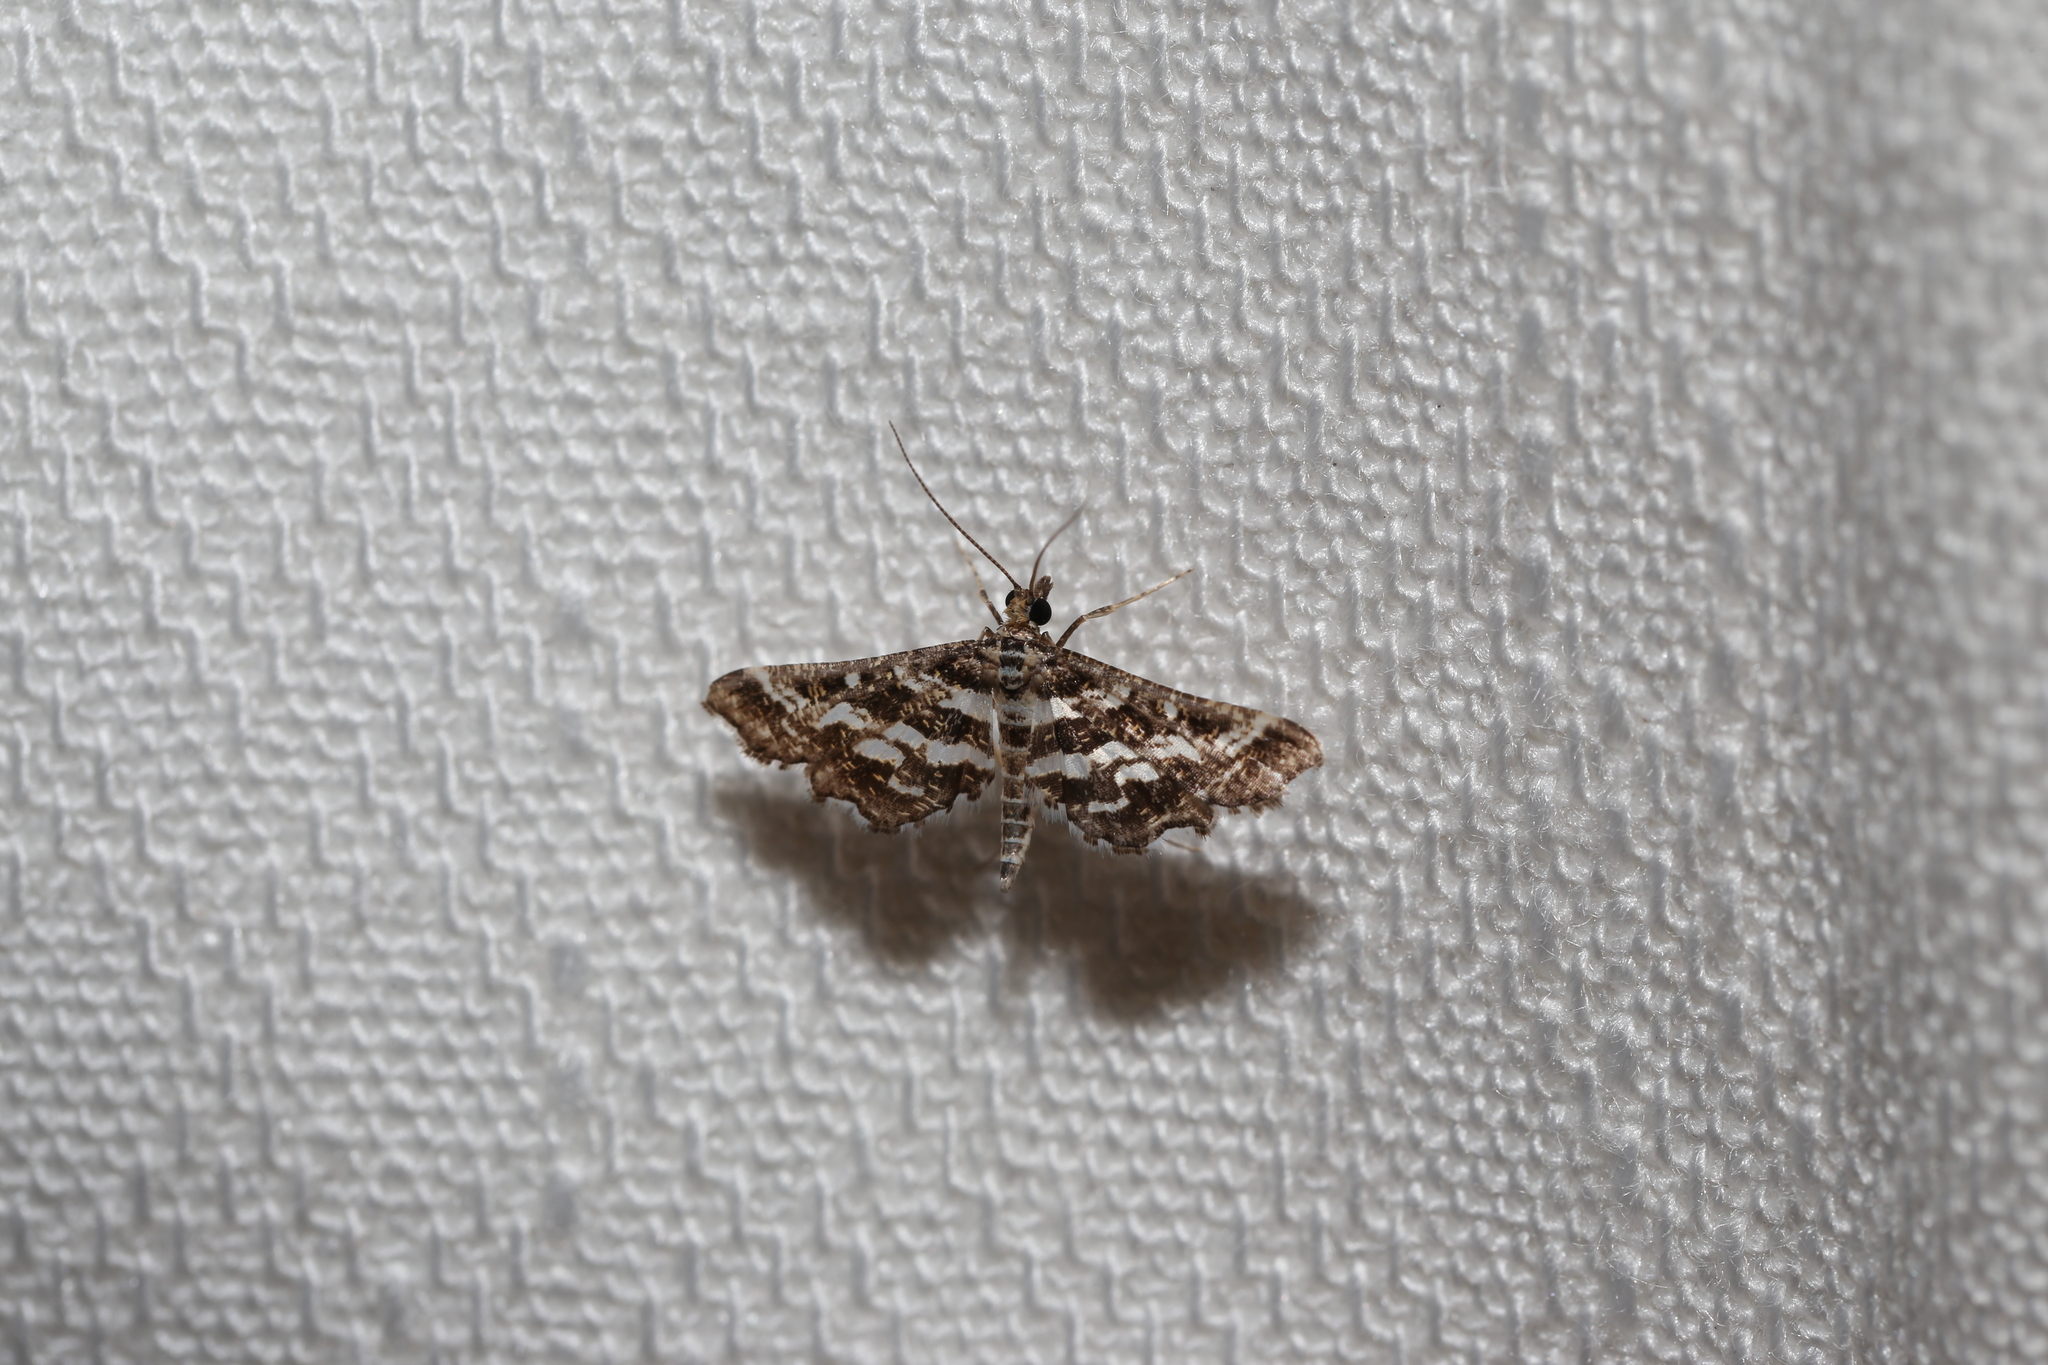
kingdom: Animalia
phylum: Arthropoda
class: Insecta
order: Lepidoptera
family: Crambidae
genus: Diasemiopsis
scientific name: Diasemiopsis ramburialis
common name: Vagrant china-mark
